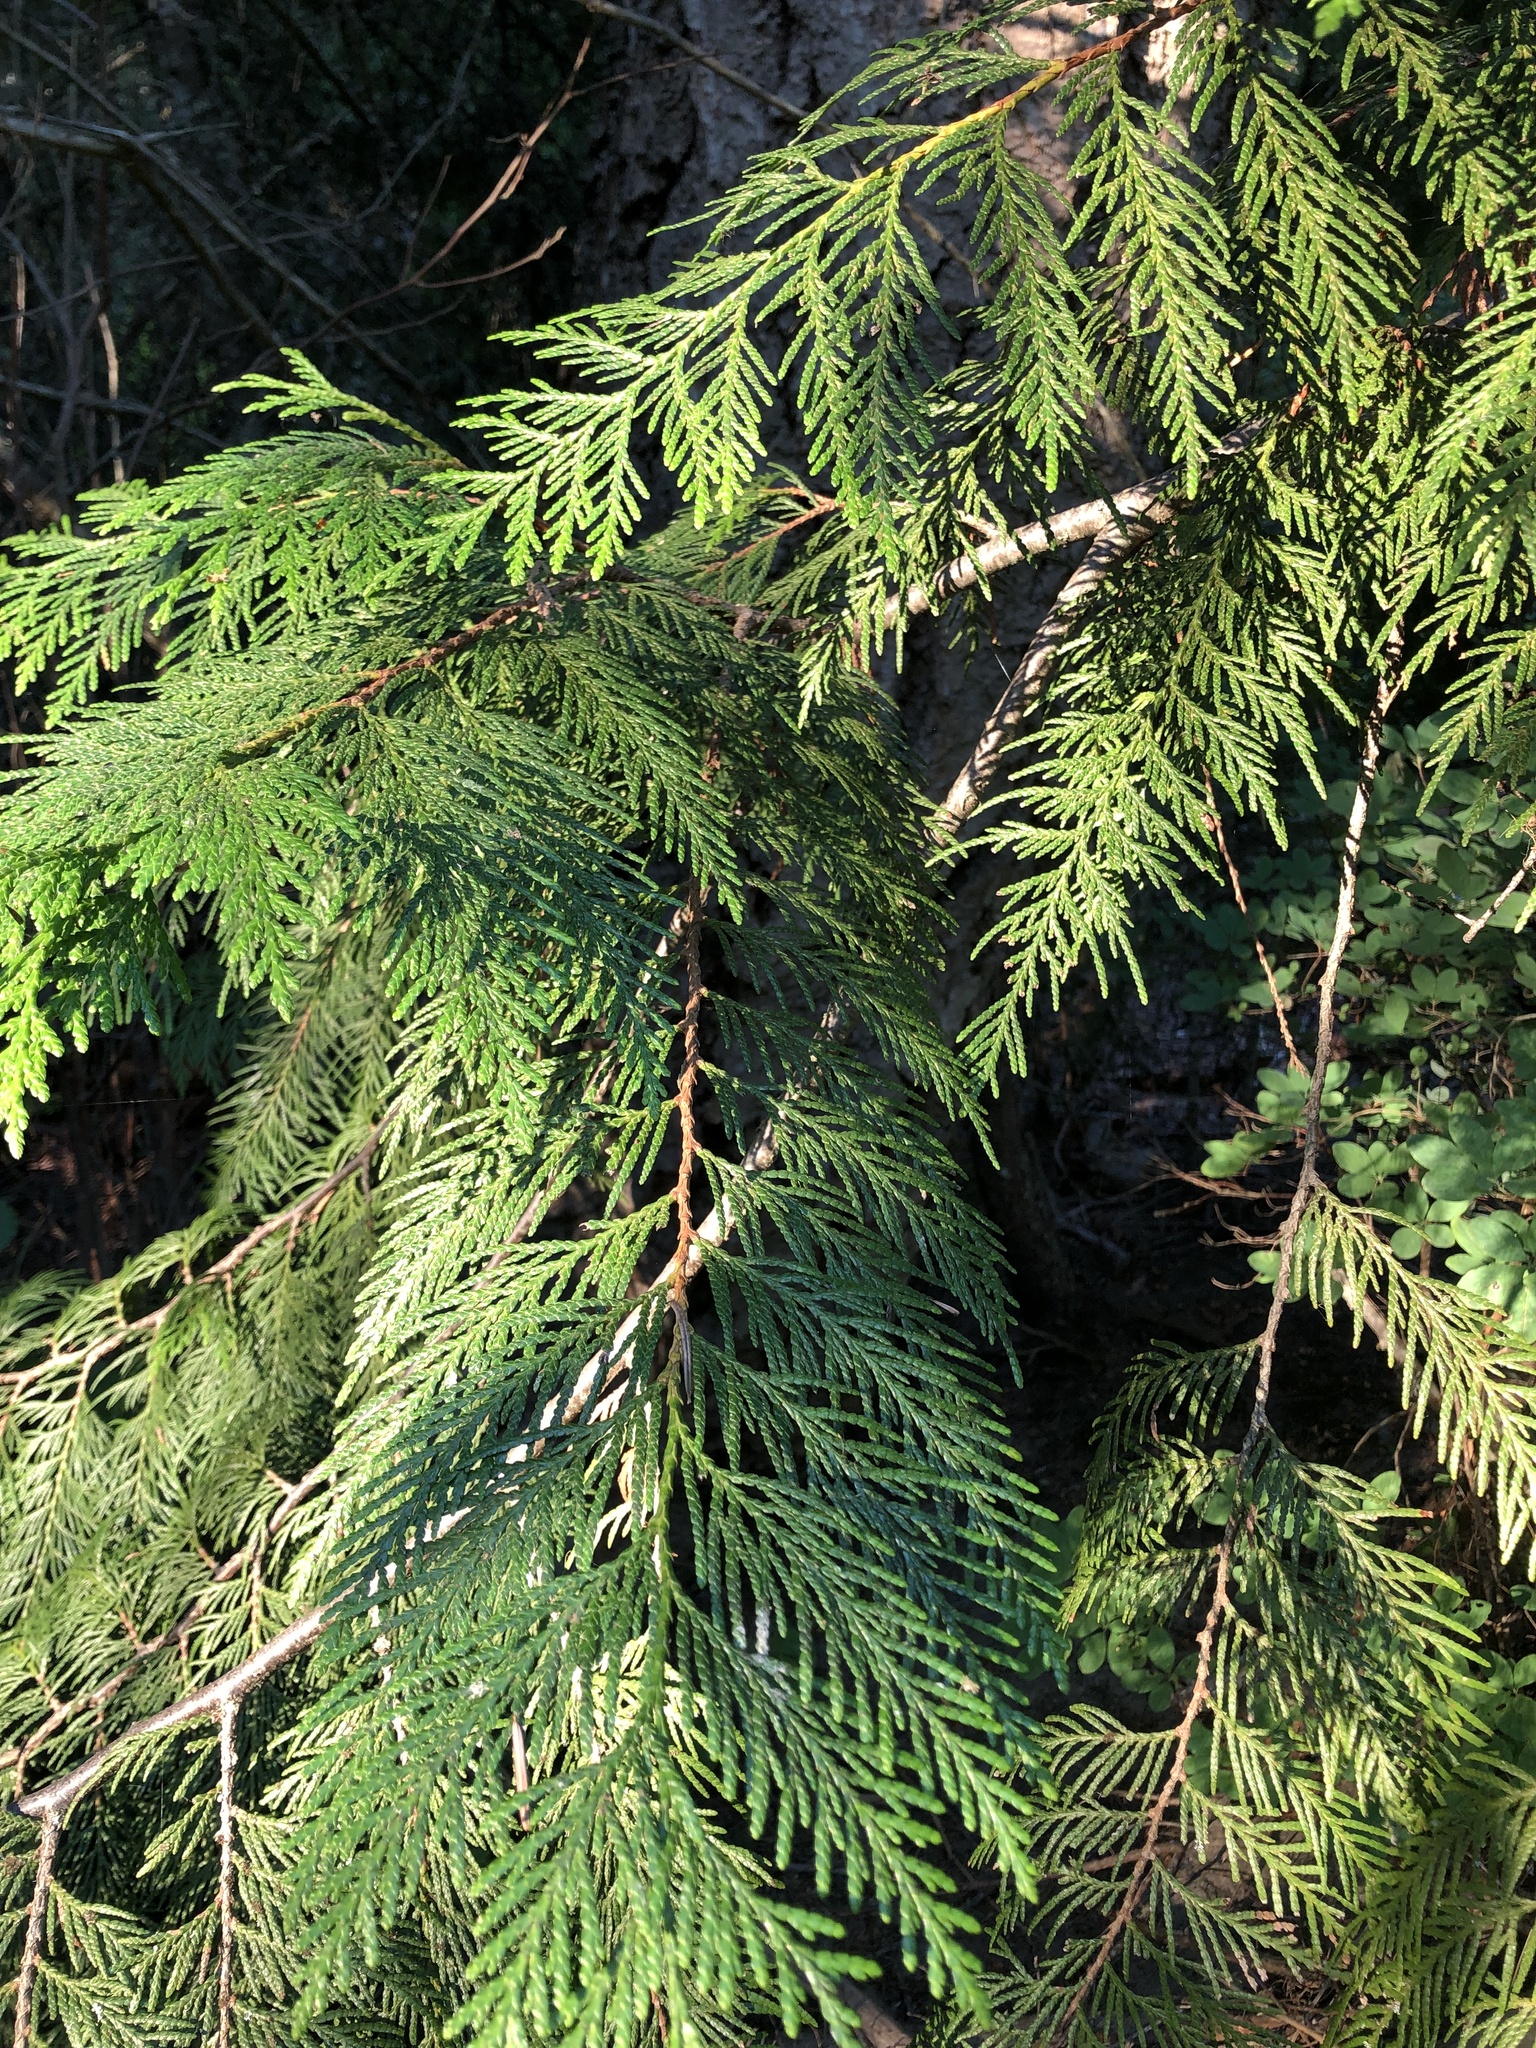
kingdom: Plantae
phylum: Tracheophyta
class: Pinopsida
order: Pinales
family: Cupressaceae
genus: Thuja
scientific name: Thuja plicata
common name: Western red-cedar
